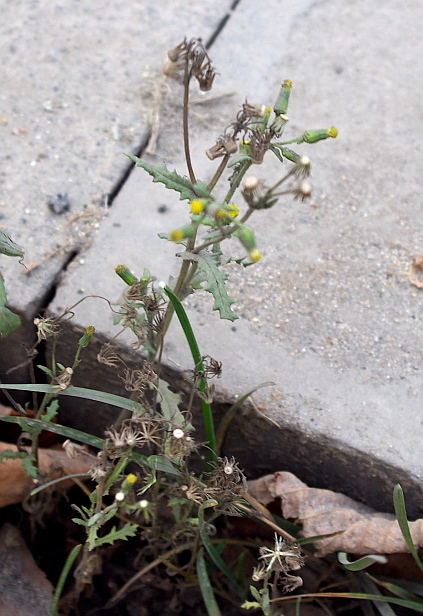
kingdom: Plantae
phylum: Tracheophyta
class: Magnoliopsida
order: Asterales
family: Asteraceae
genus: Senecio
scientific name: Senecio vulgaris
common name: Old-man-in-the-spring
